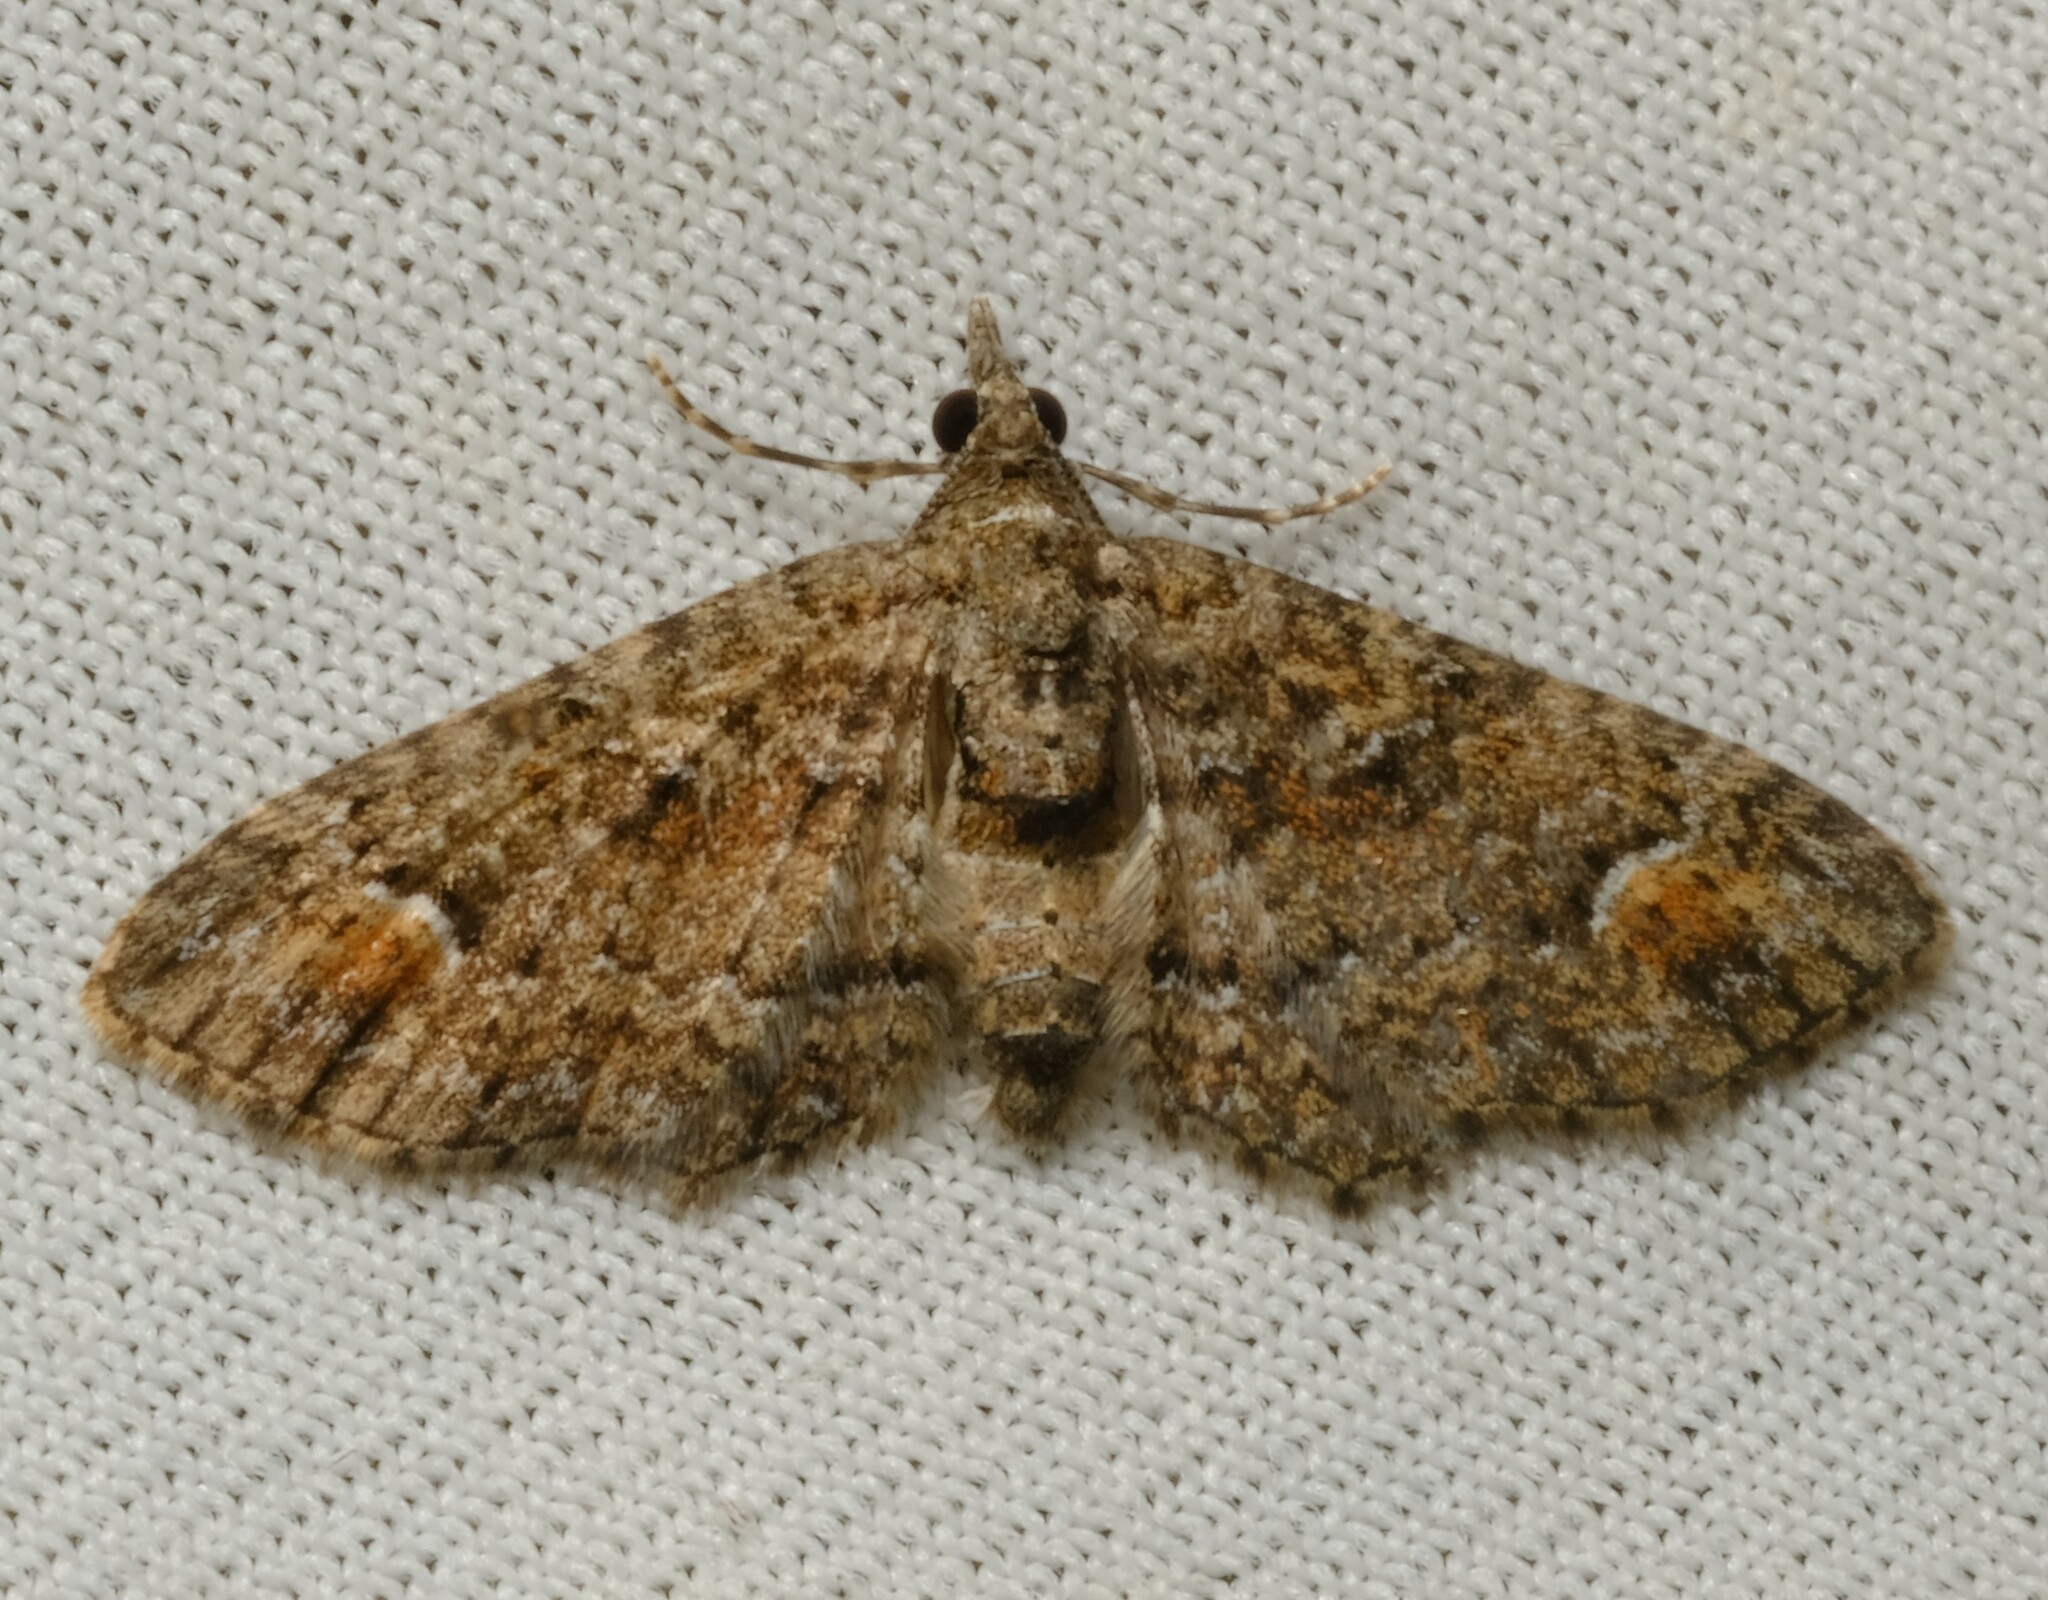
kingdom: Animalia
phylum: Arthropoda
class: Insecta
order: Lepidoptera
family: Geometridae
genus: Pasiphilodes
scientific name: Pasiphilodes testulata
